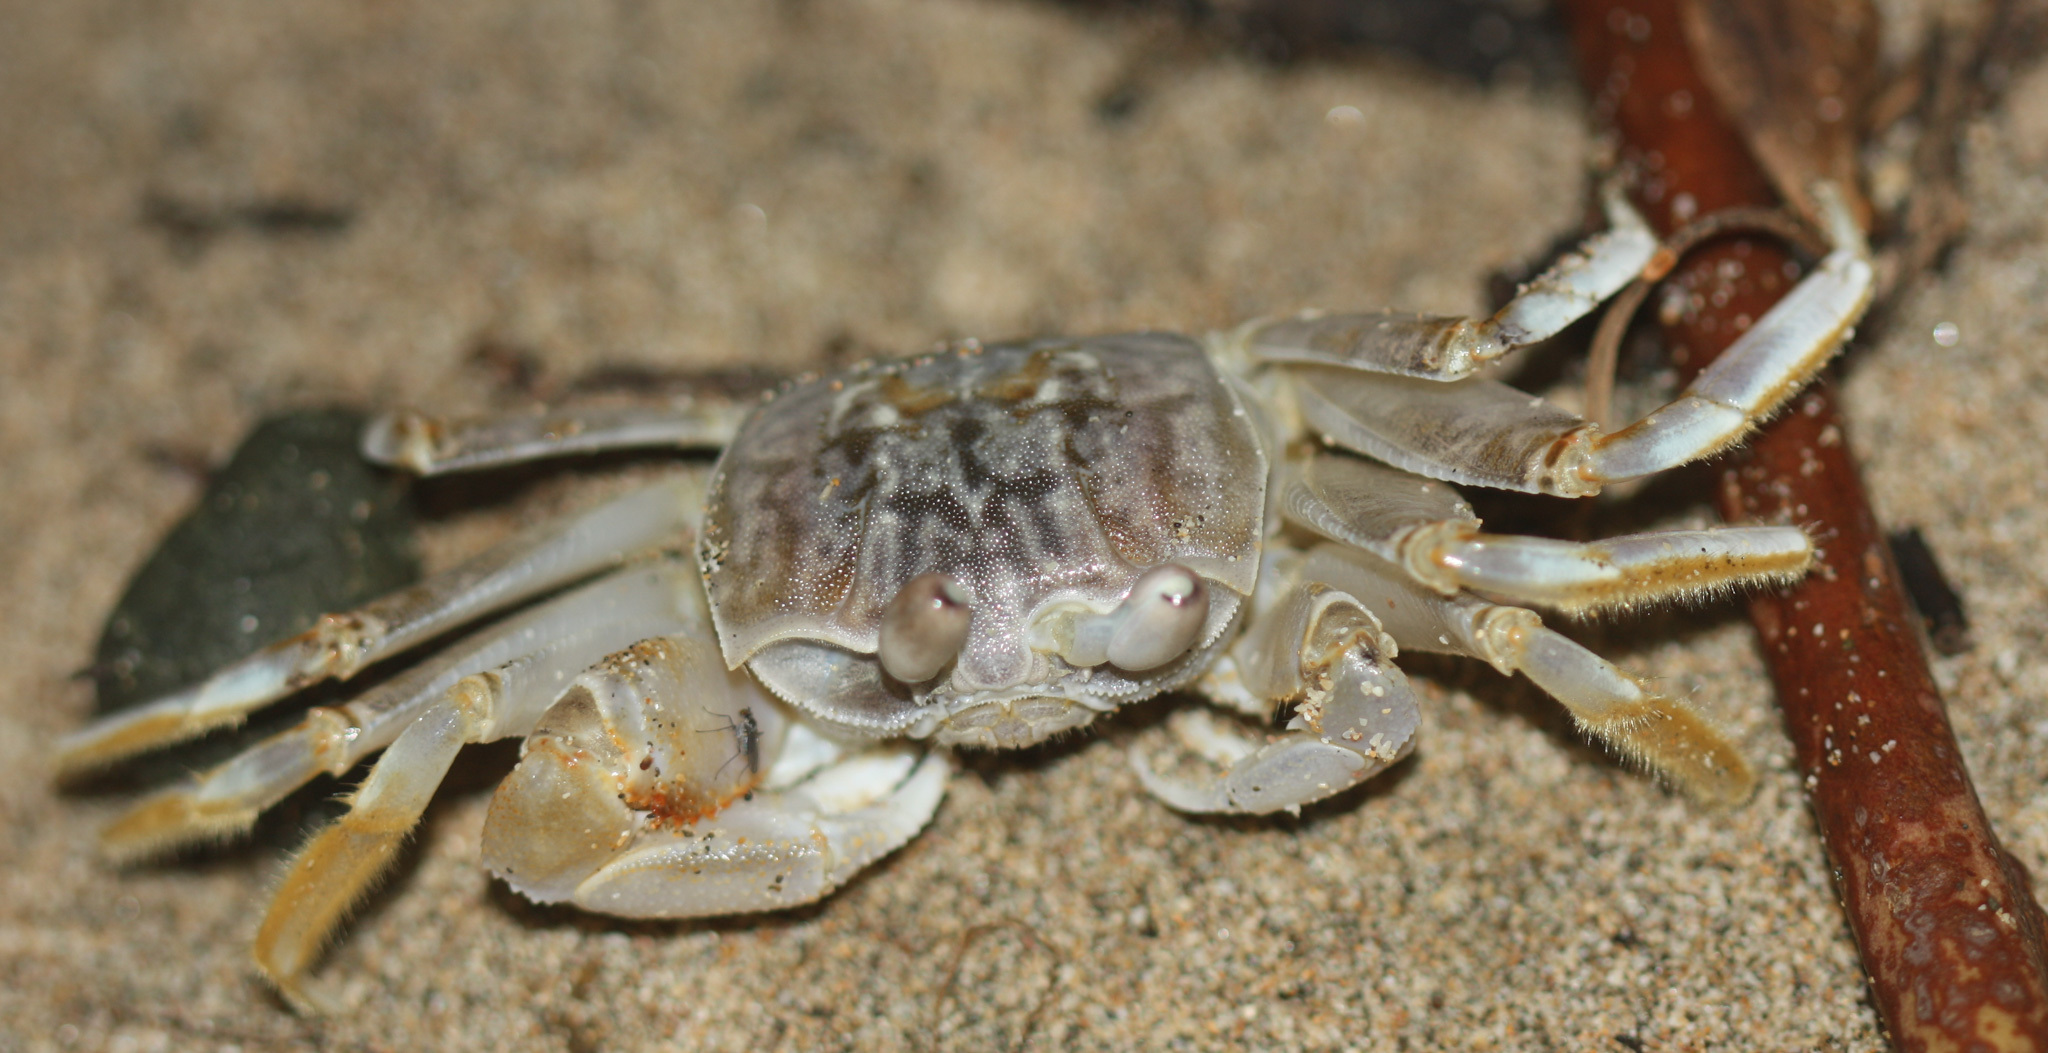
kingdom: Animalia
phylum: Arthropoda
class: Malacostraca
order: Decapoda
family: Ocypodidae
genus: Ocypode
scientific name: Ocypode occidentalis
